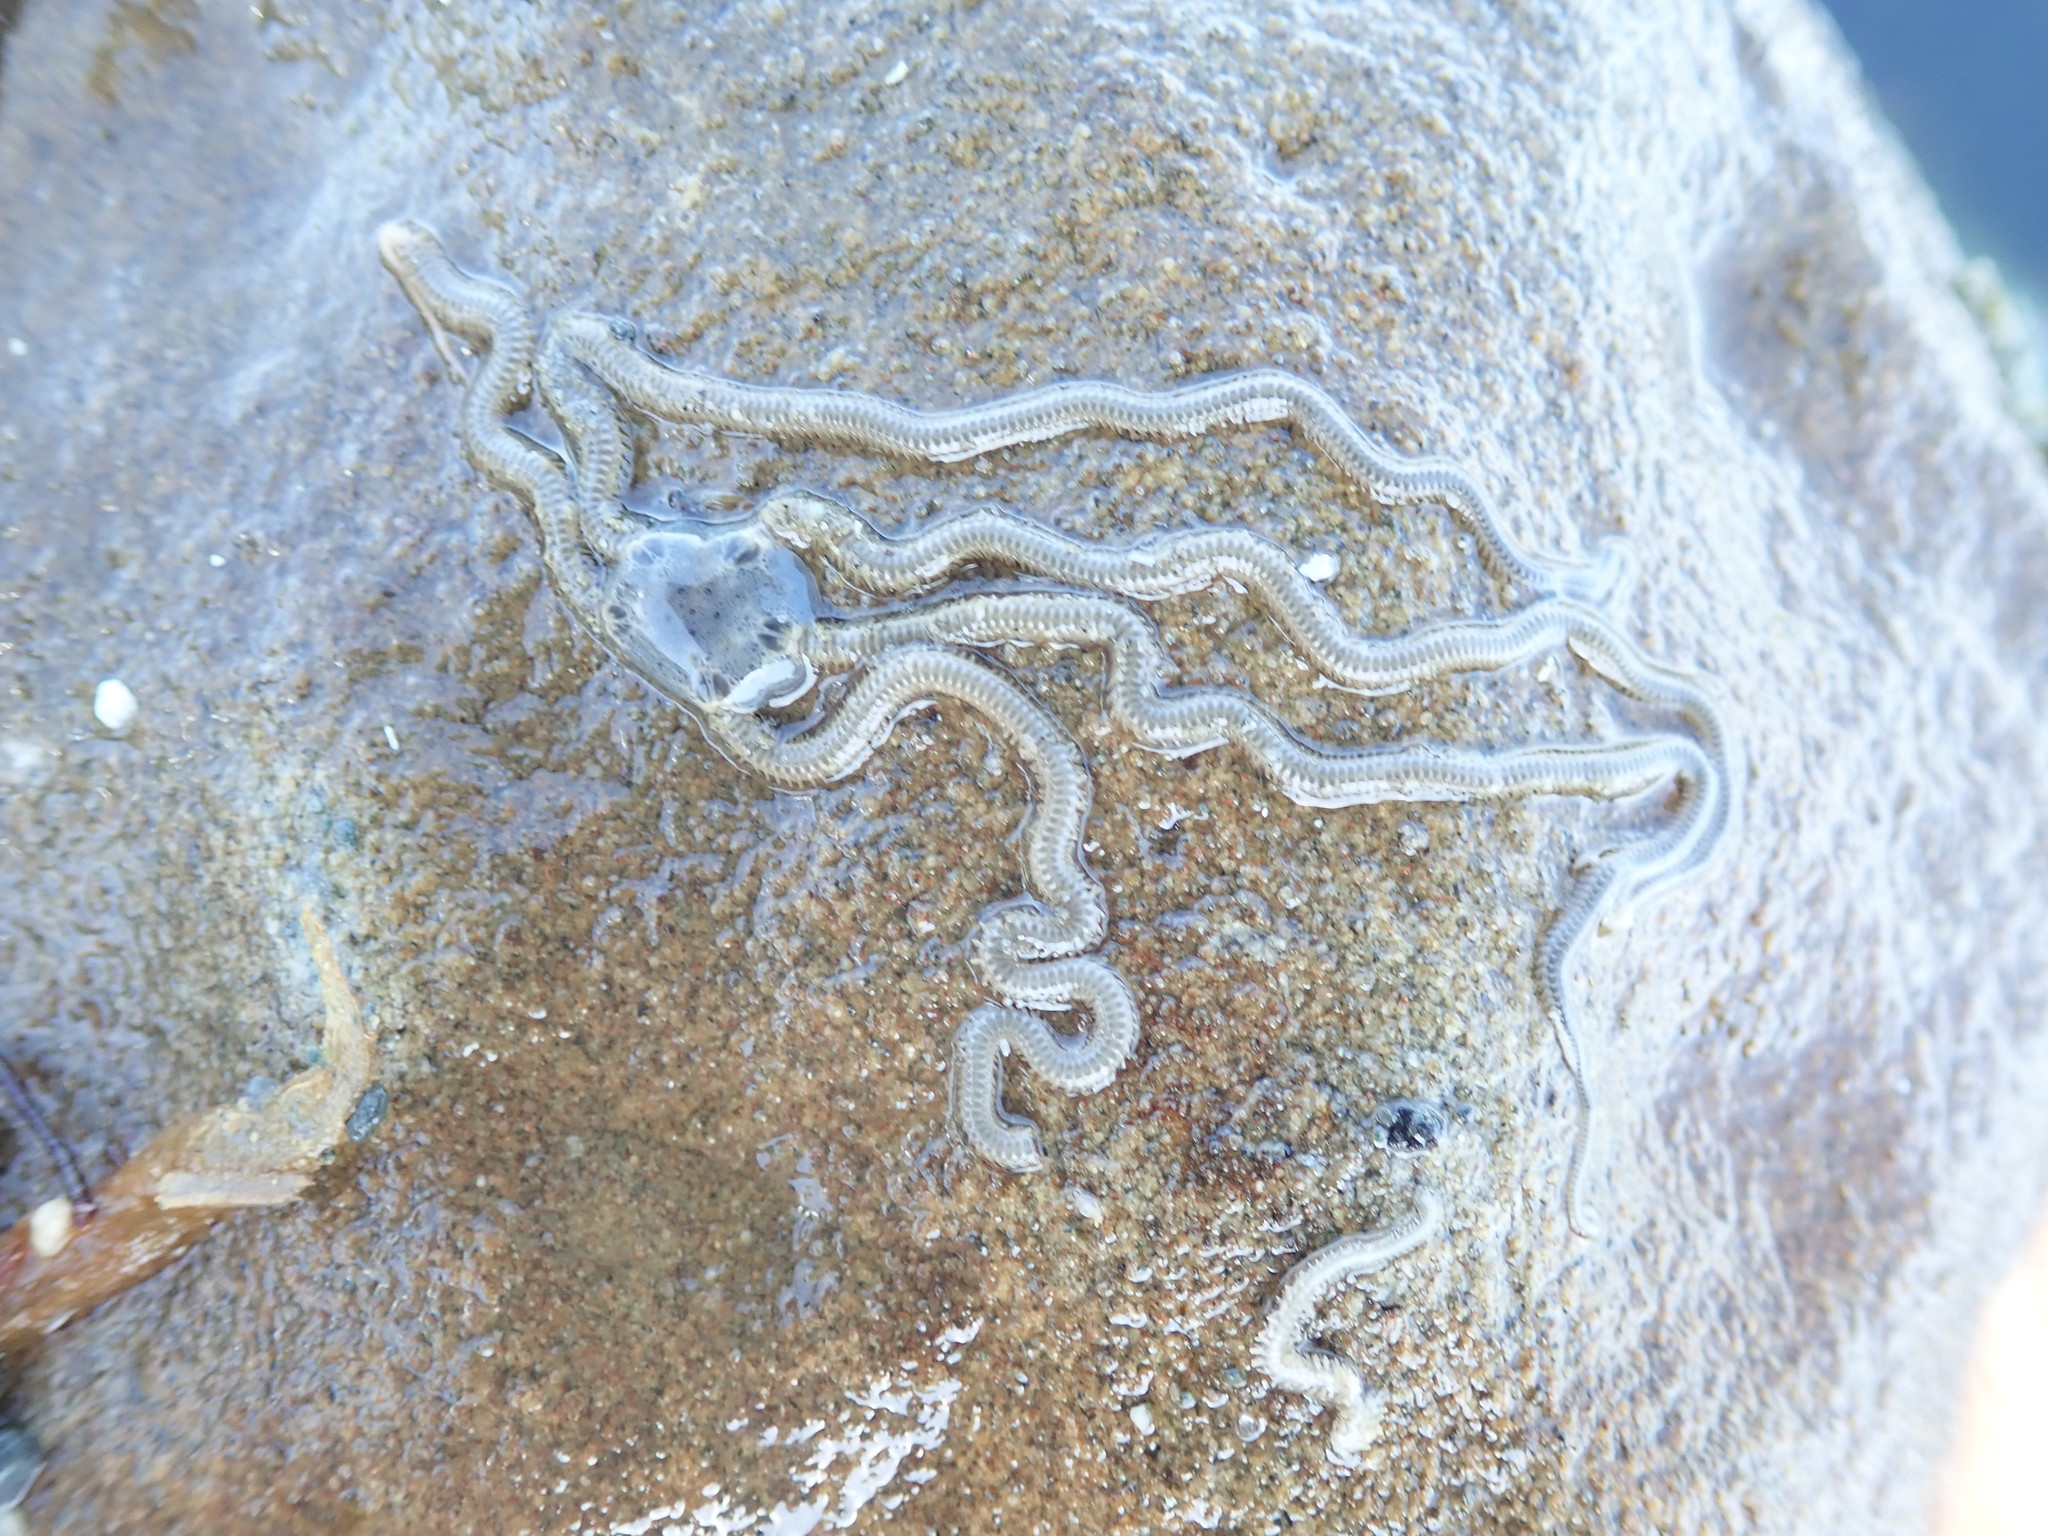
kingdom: Animalia
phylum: Echinodermata
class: Ophiuroidea
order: Amphilepidida
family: Amphiuridae
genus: Amphiodia
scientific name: Amphiodia occidentalis
